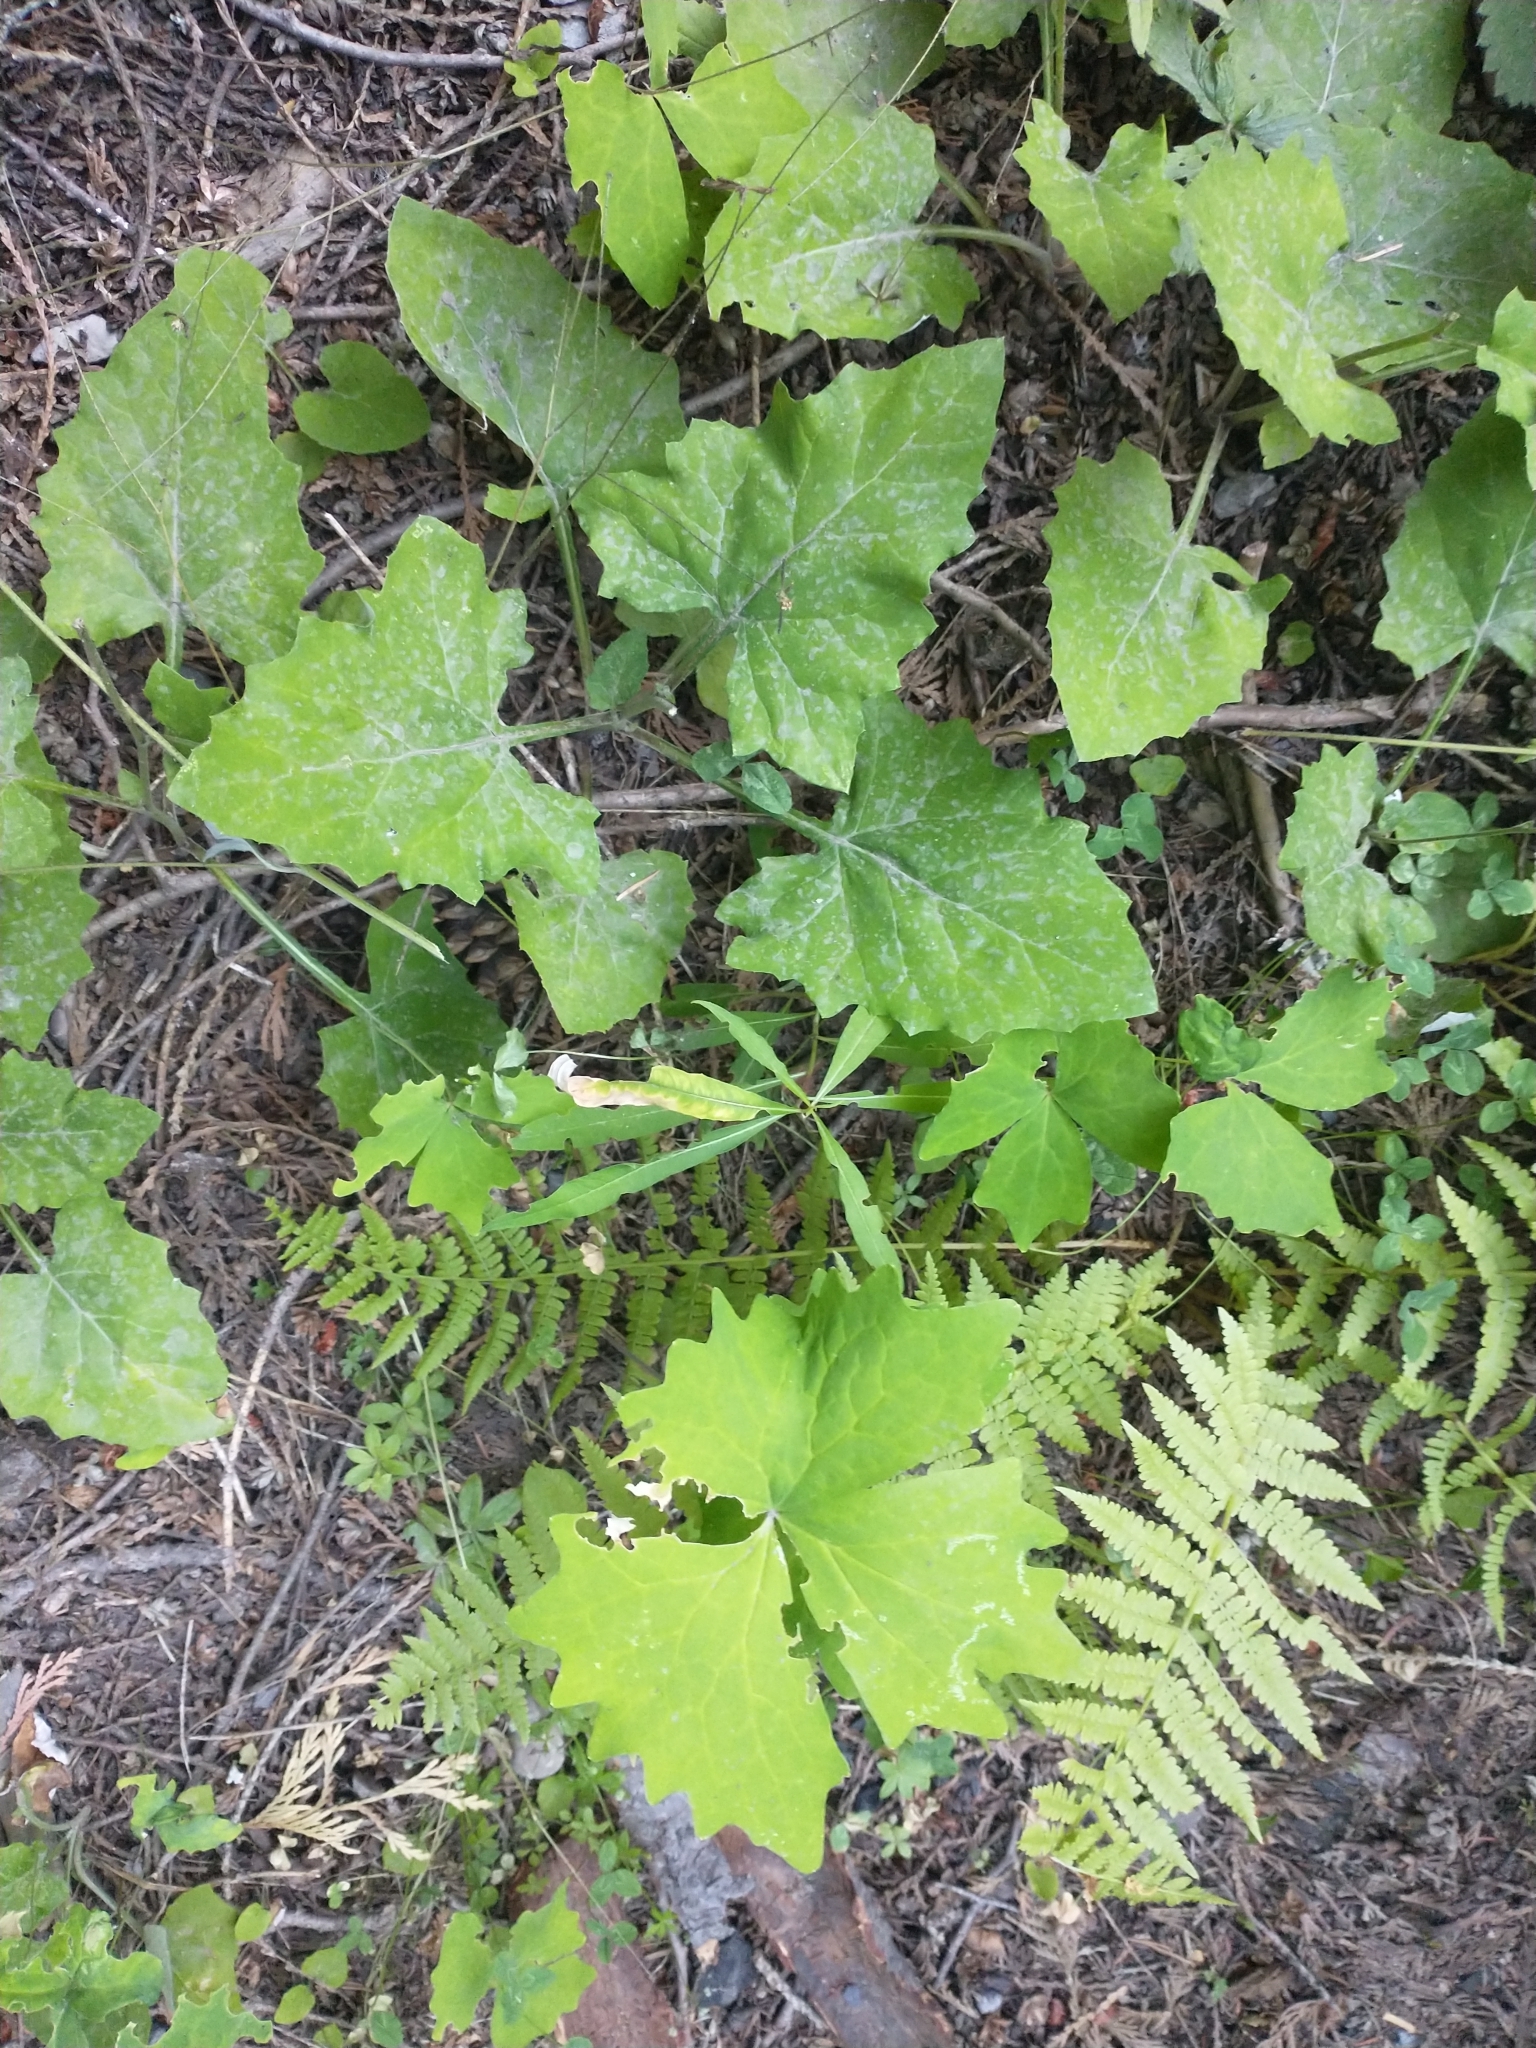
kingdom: Plantae
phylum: Tracheophyta
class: Magnoliopsida
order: Asterales
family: Asteraceae
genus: Adenocaulon
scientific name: Adenocaulon bicolor
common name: Trailplant
